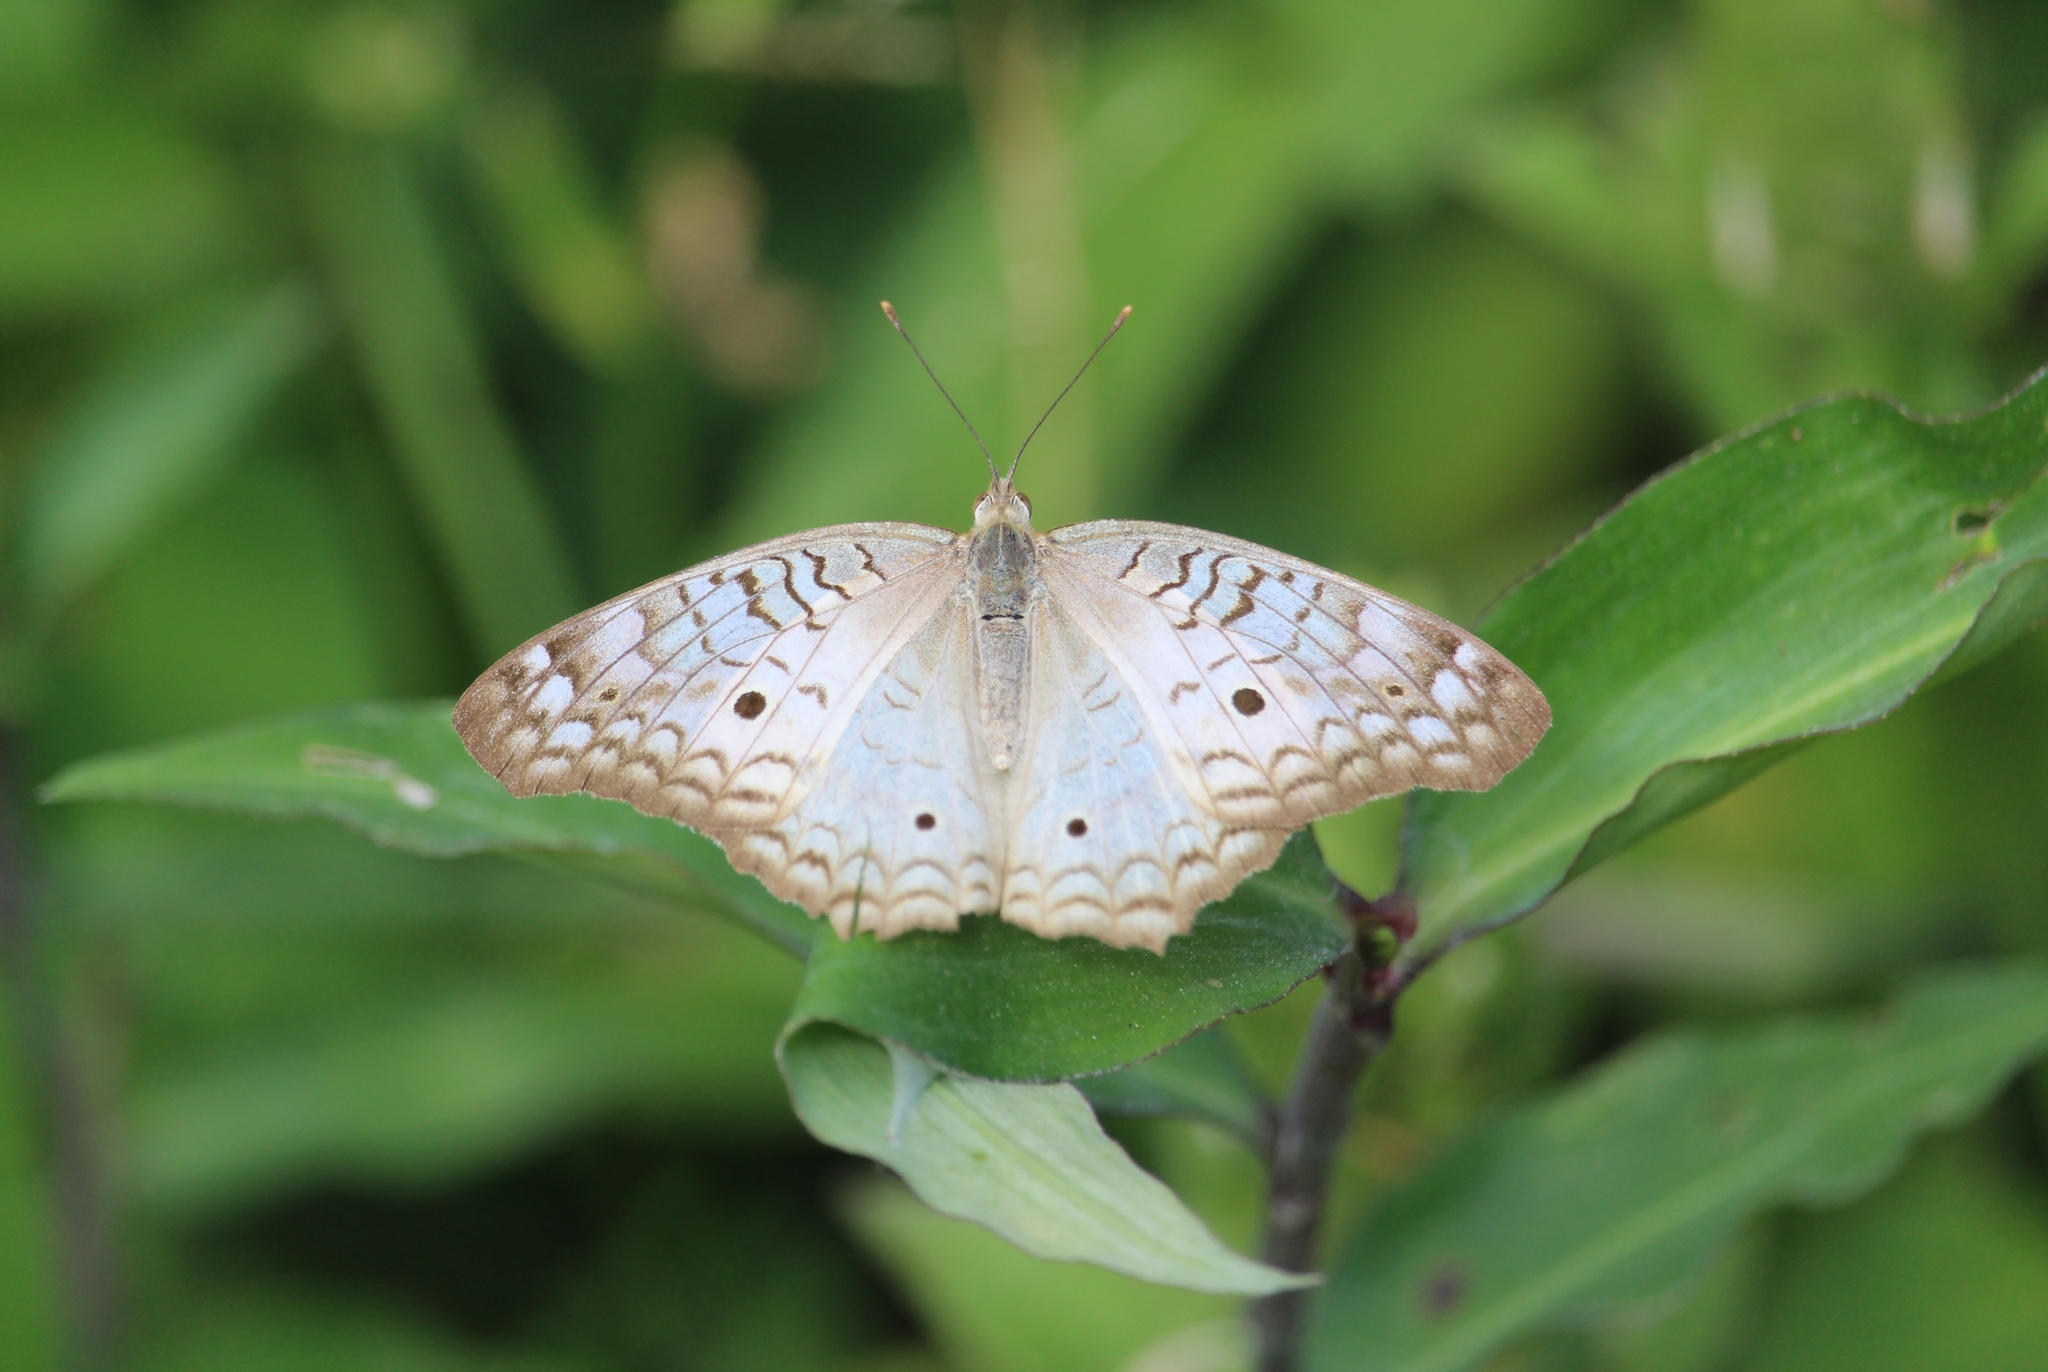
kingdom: Animalia
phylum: Arthropoda
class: Insecta
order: Lepidoptera
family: Nymphalidae
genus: Anartia
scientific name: Anartia jatrophae
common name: White peacock
